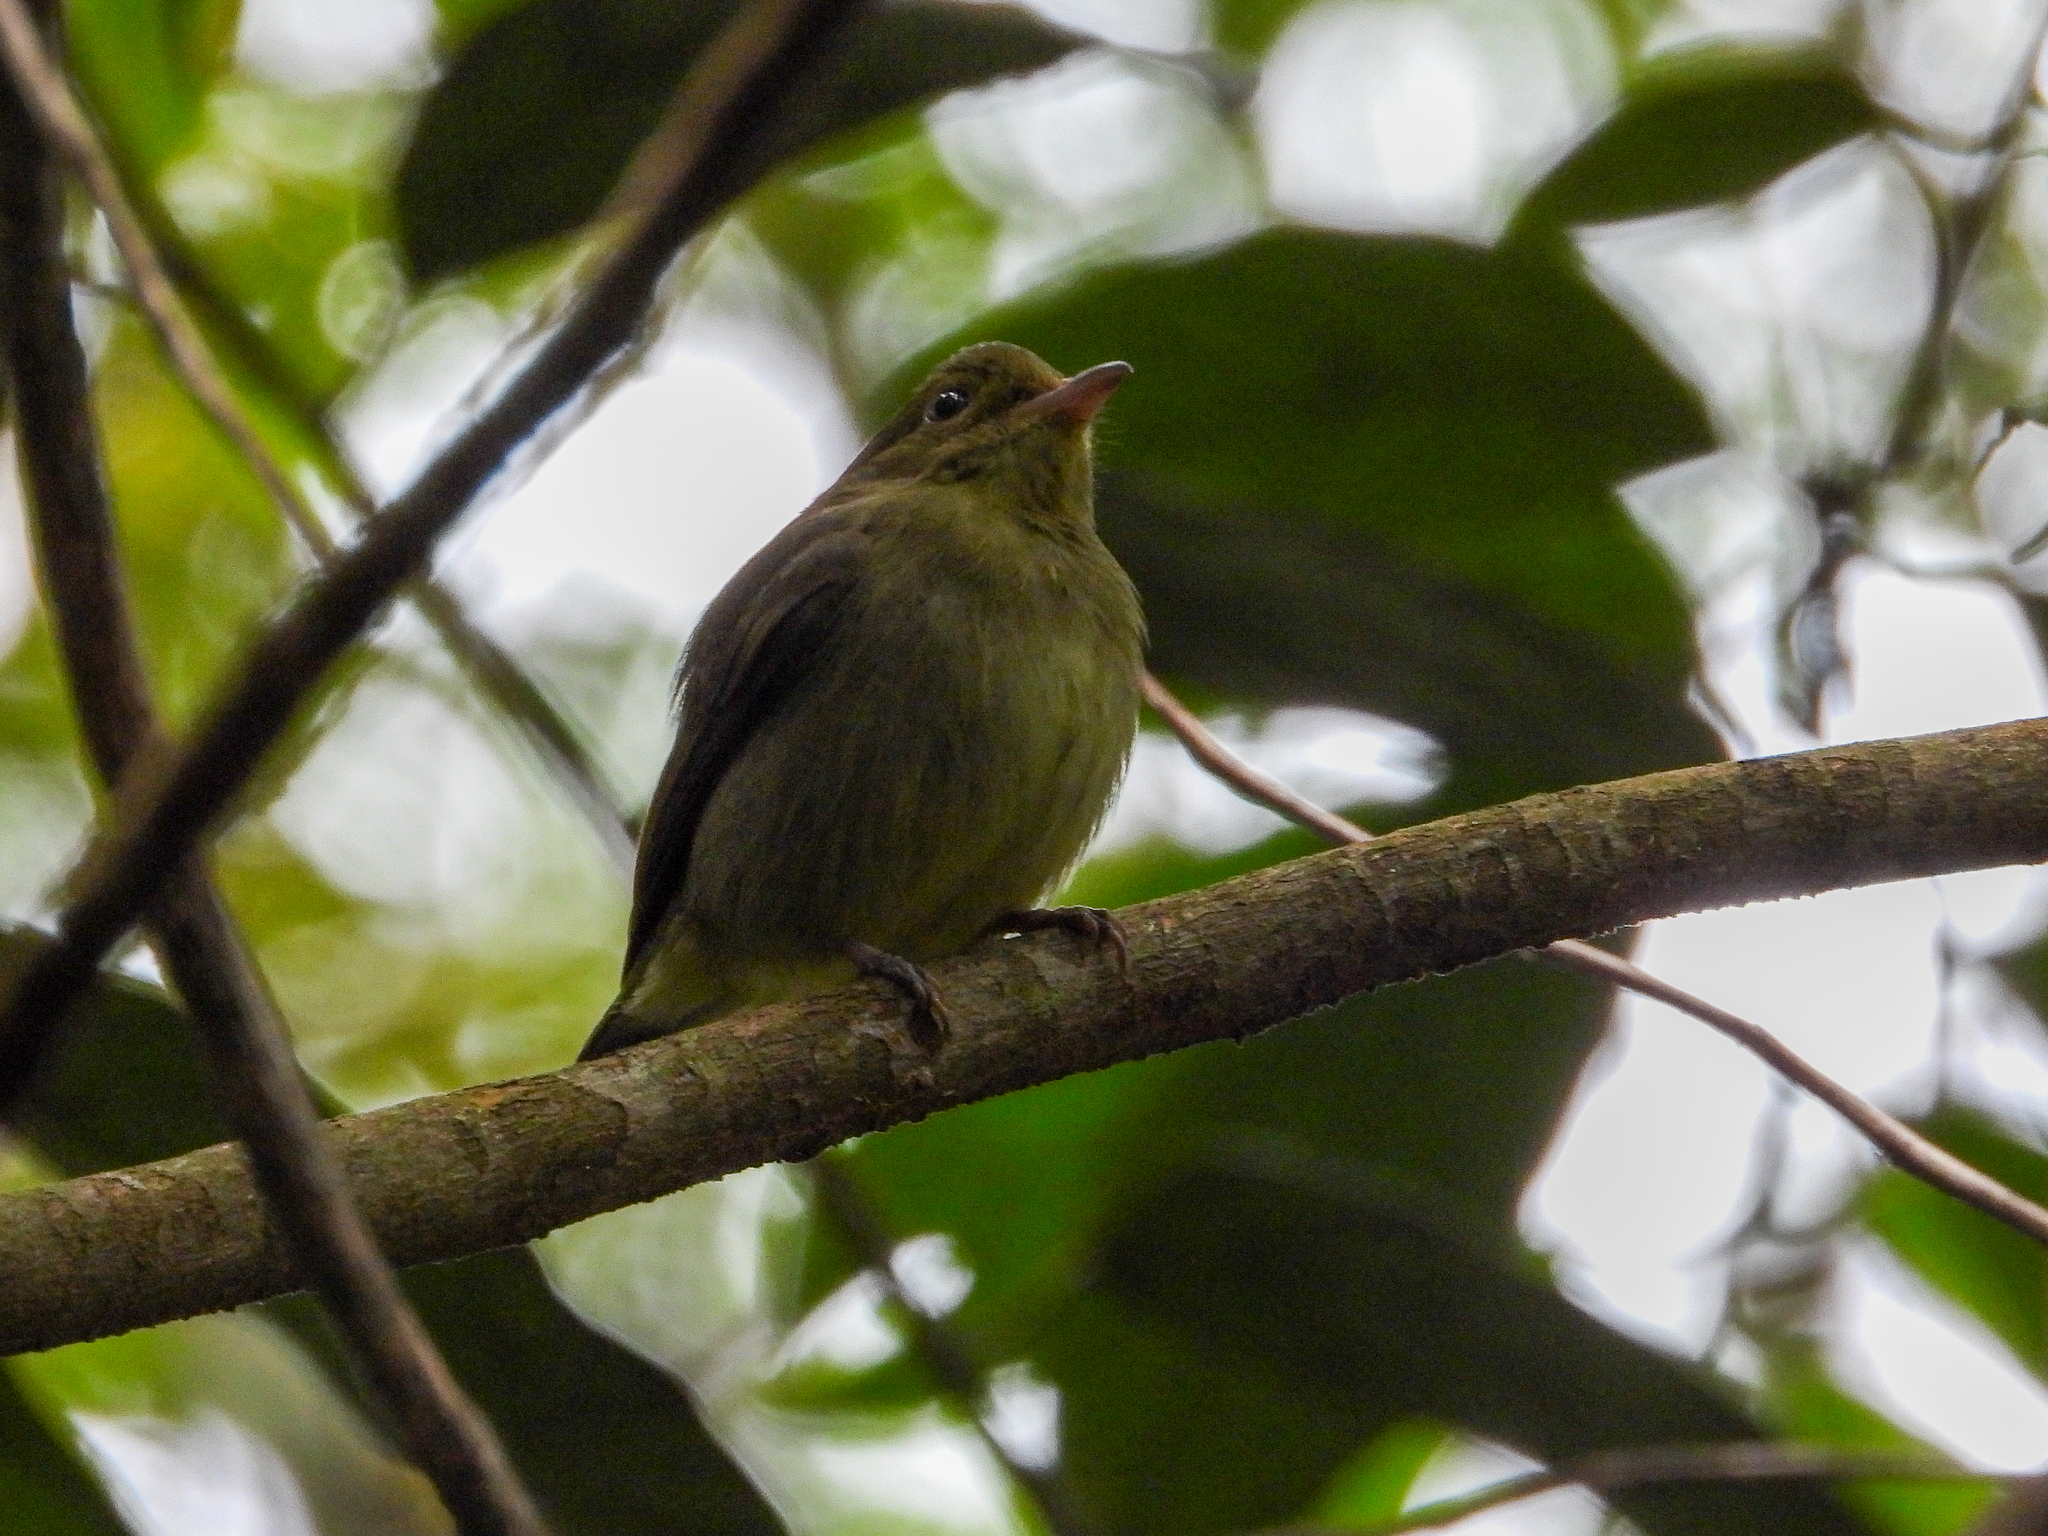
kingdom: Animalia
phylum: Chordata
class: Aves
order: Passeriformes
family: Pipridae
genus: Pipra
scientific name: Pipra mentalis
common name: Red-capped manakin
